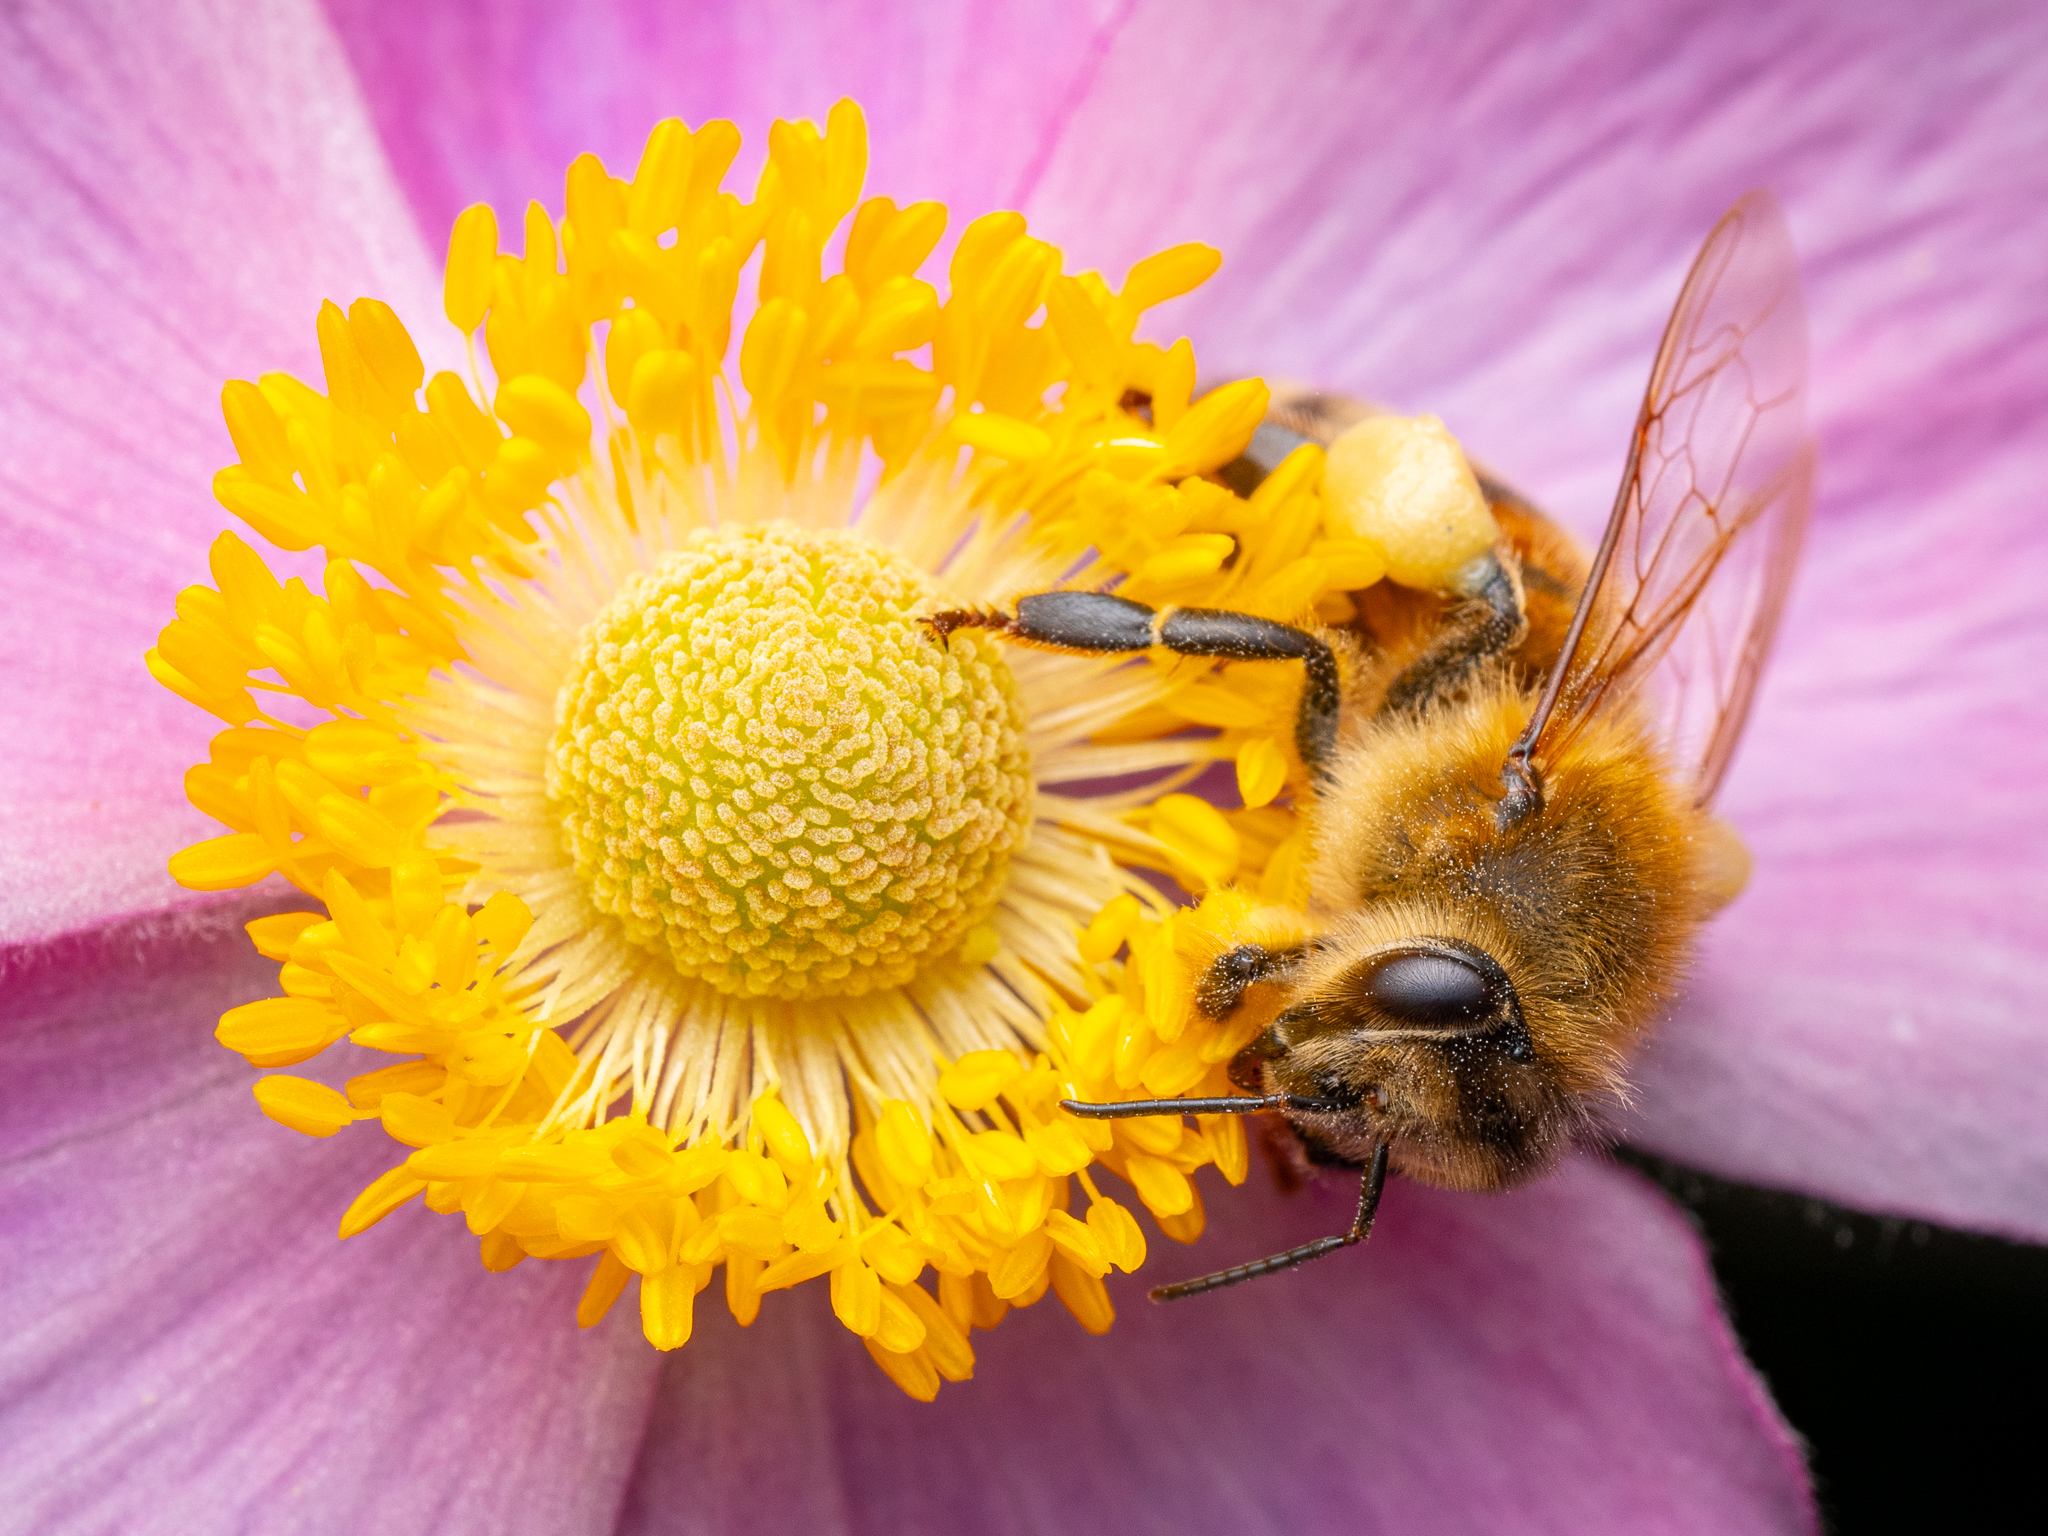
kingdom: Animalia
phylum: Arthropoda
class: Insecta
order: Hymenoptera
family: Apidae
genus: Apis
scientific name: Apis mellifera
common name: Honey bee
